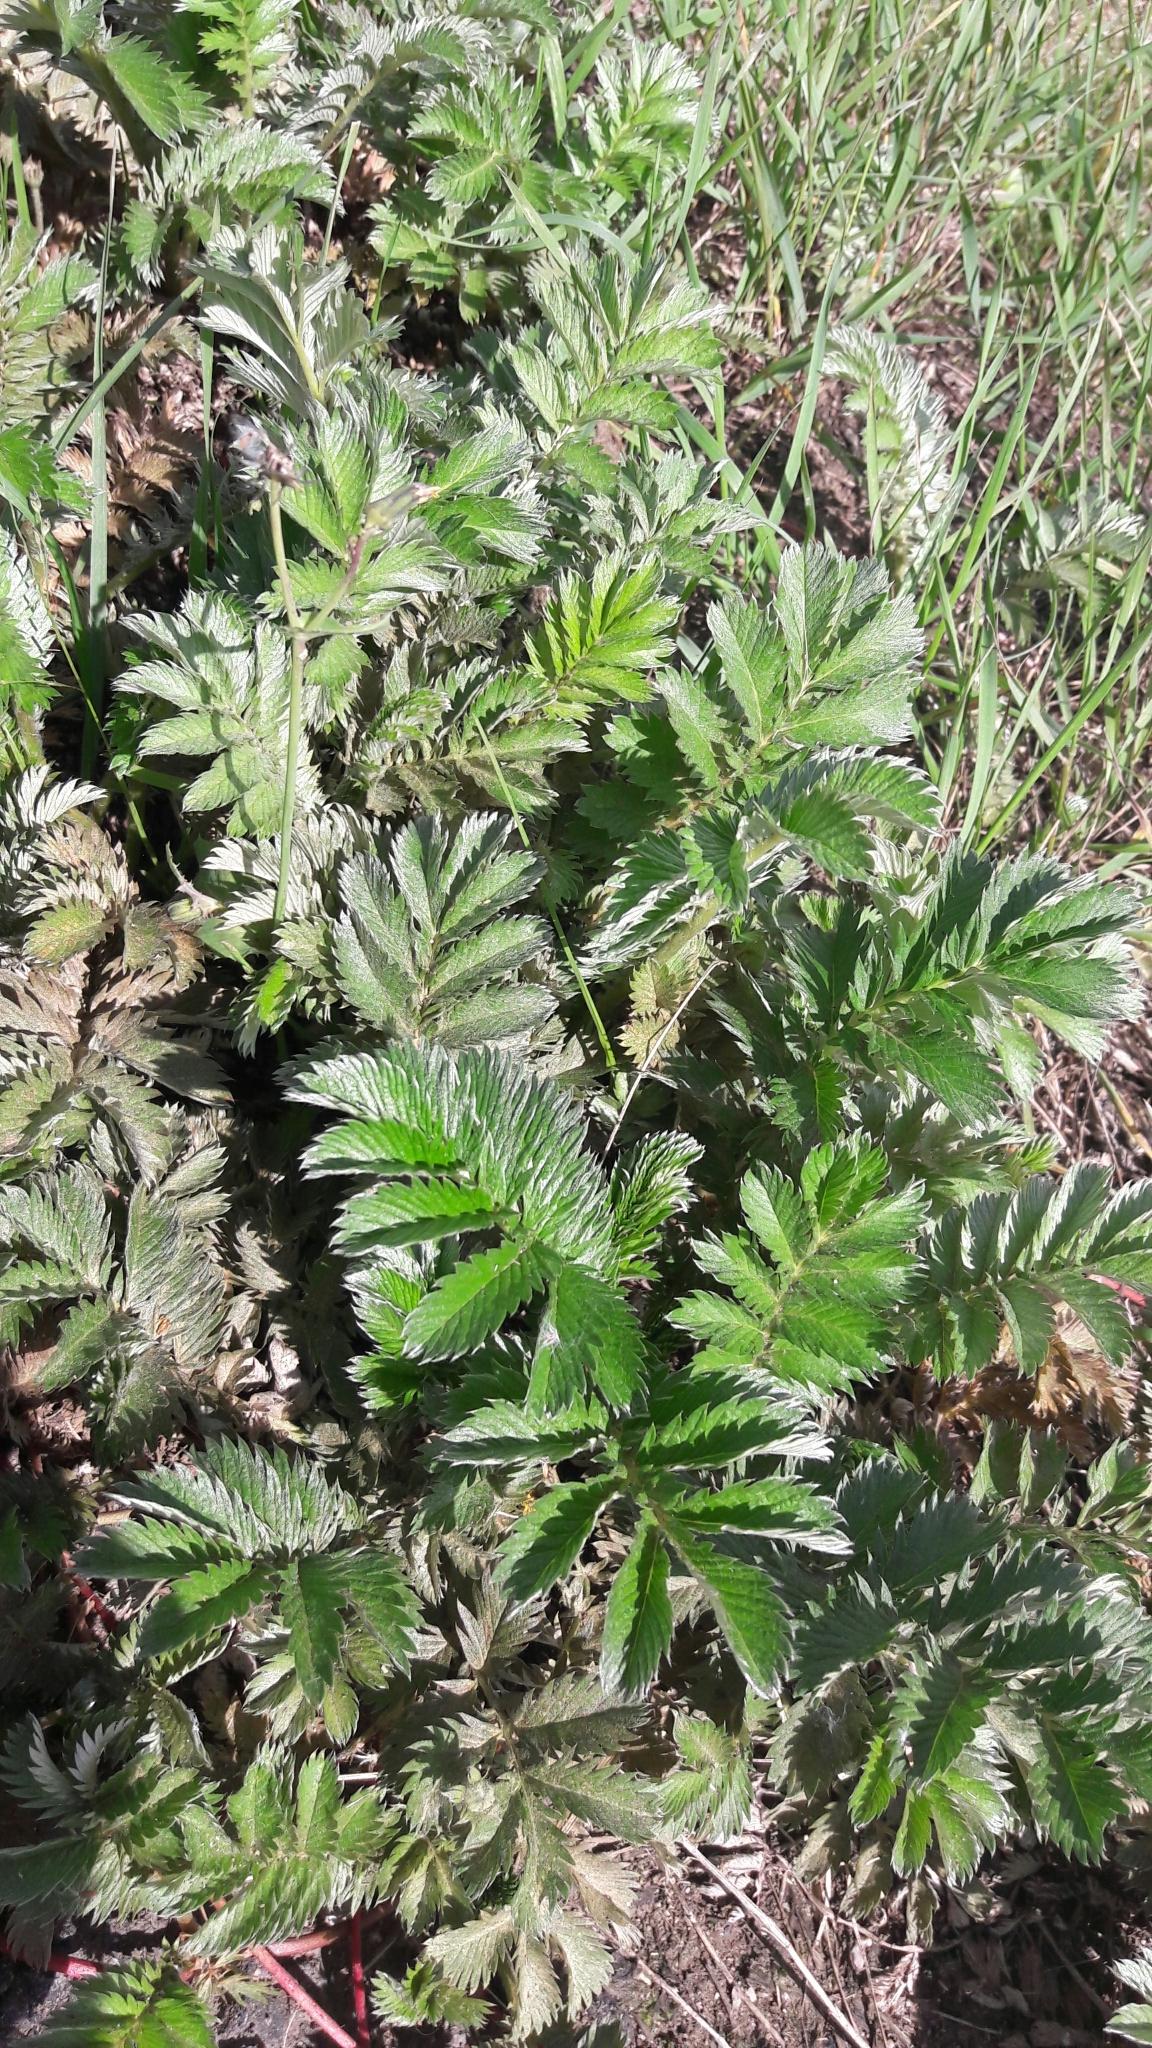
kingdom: Plantae
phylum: Tracheophyta
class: Magnoliopsida
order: Rosales
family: Rosaceae
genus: Argentina
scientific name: Argentina anserina
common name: Common silverweed
